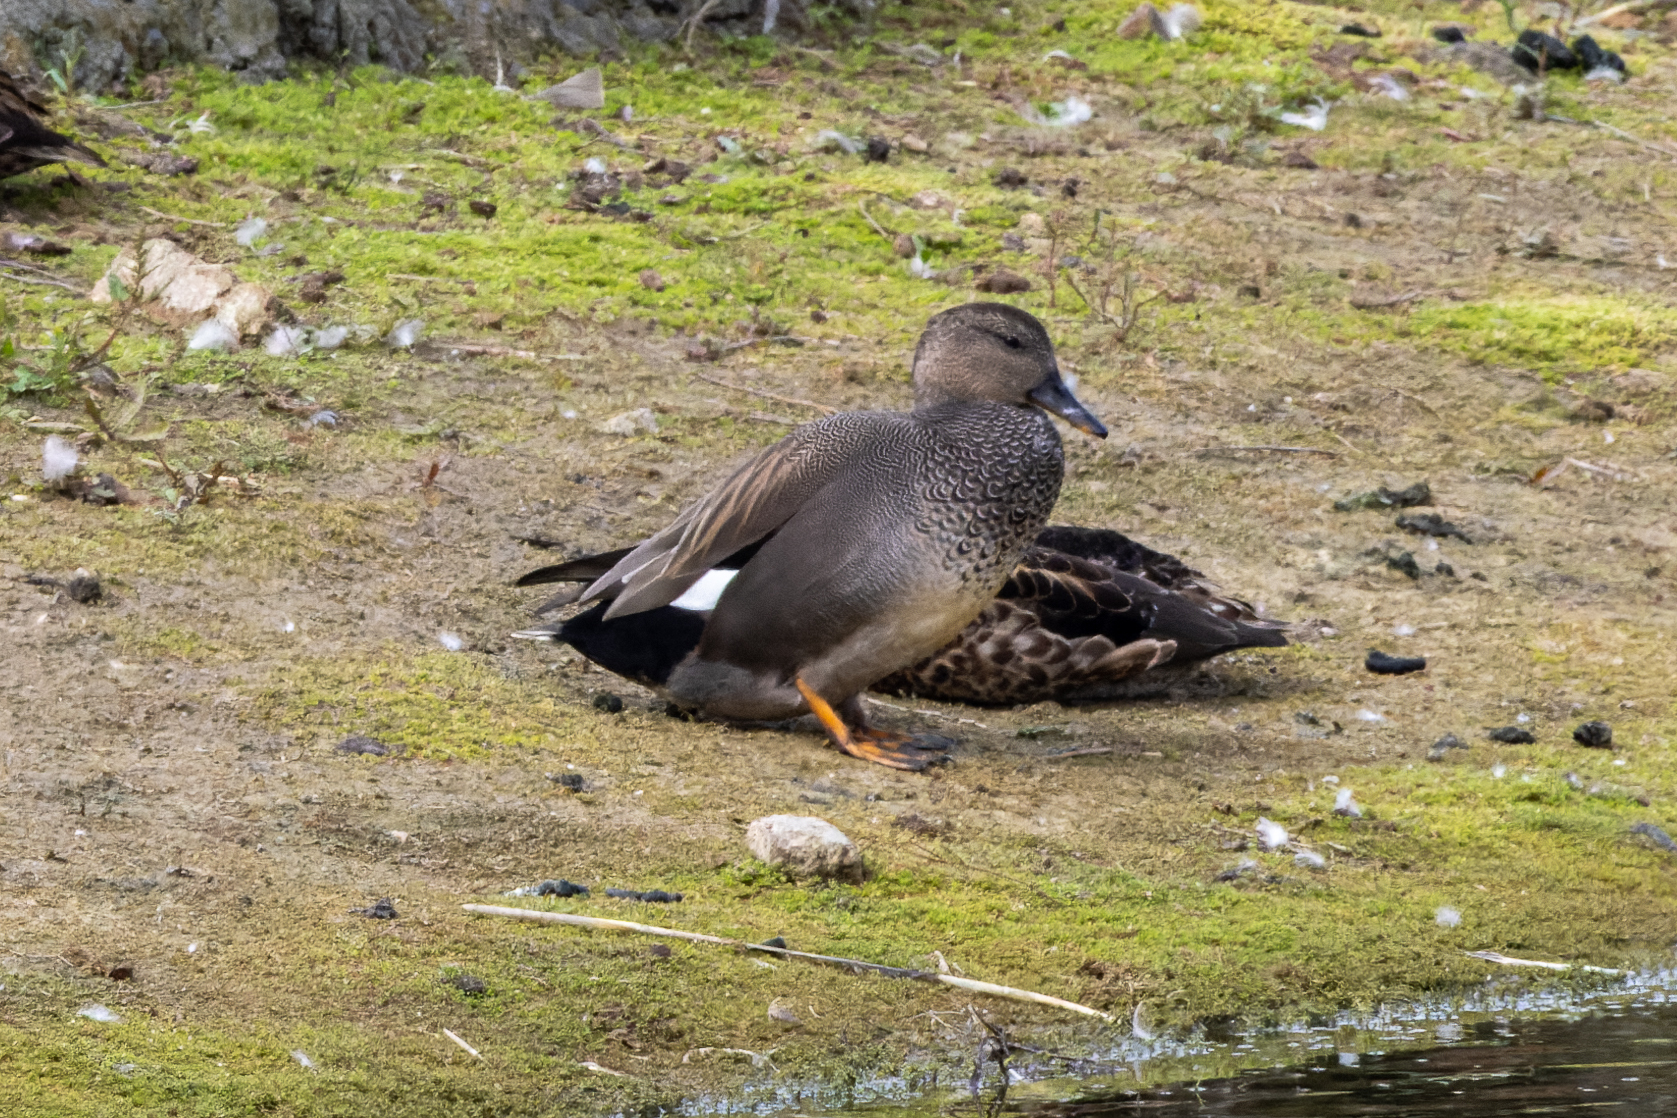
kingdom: Animalia
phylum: Chordata
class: Aves
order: Anseriformes
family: Anatidae
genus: Mareca
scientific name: Mareca strepera
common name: Gadwall
